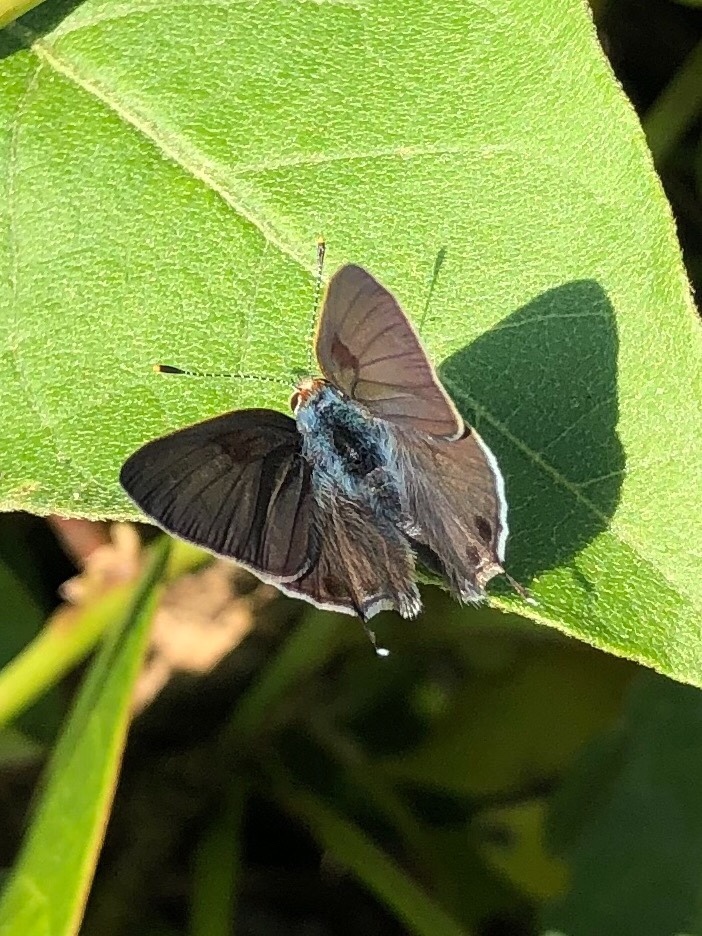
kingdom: Animalia
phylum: Arthropoda
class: Insecta
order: Lepidoptera
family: Lycaenidae
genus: Callicista
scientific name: Callicista columella
